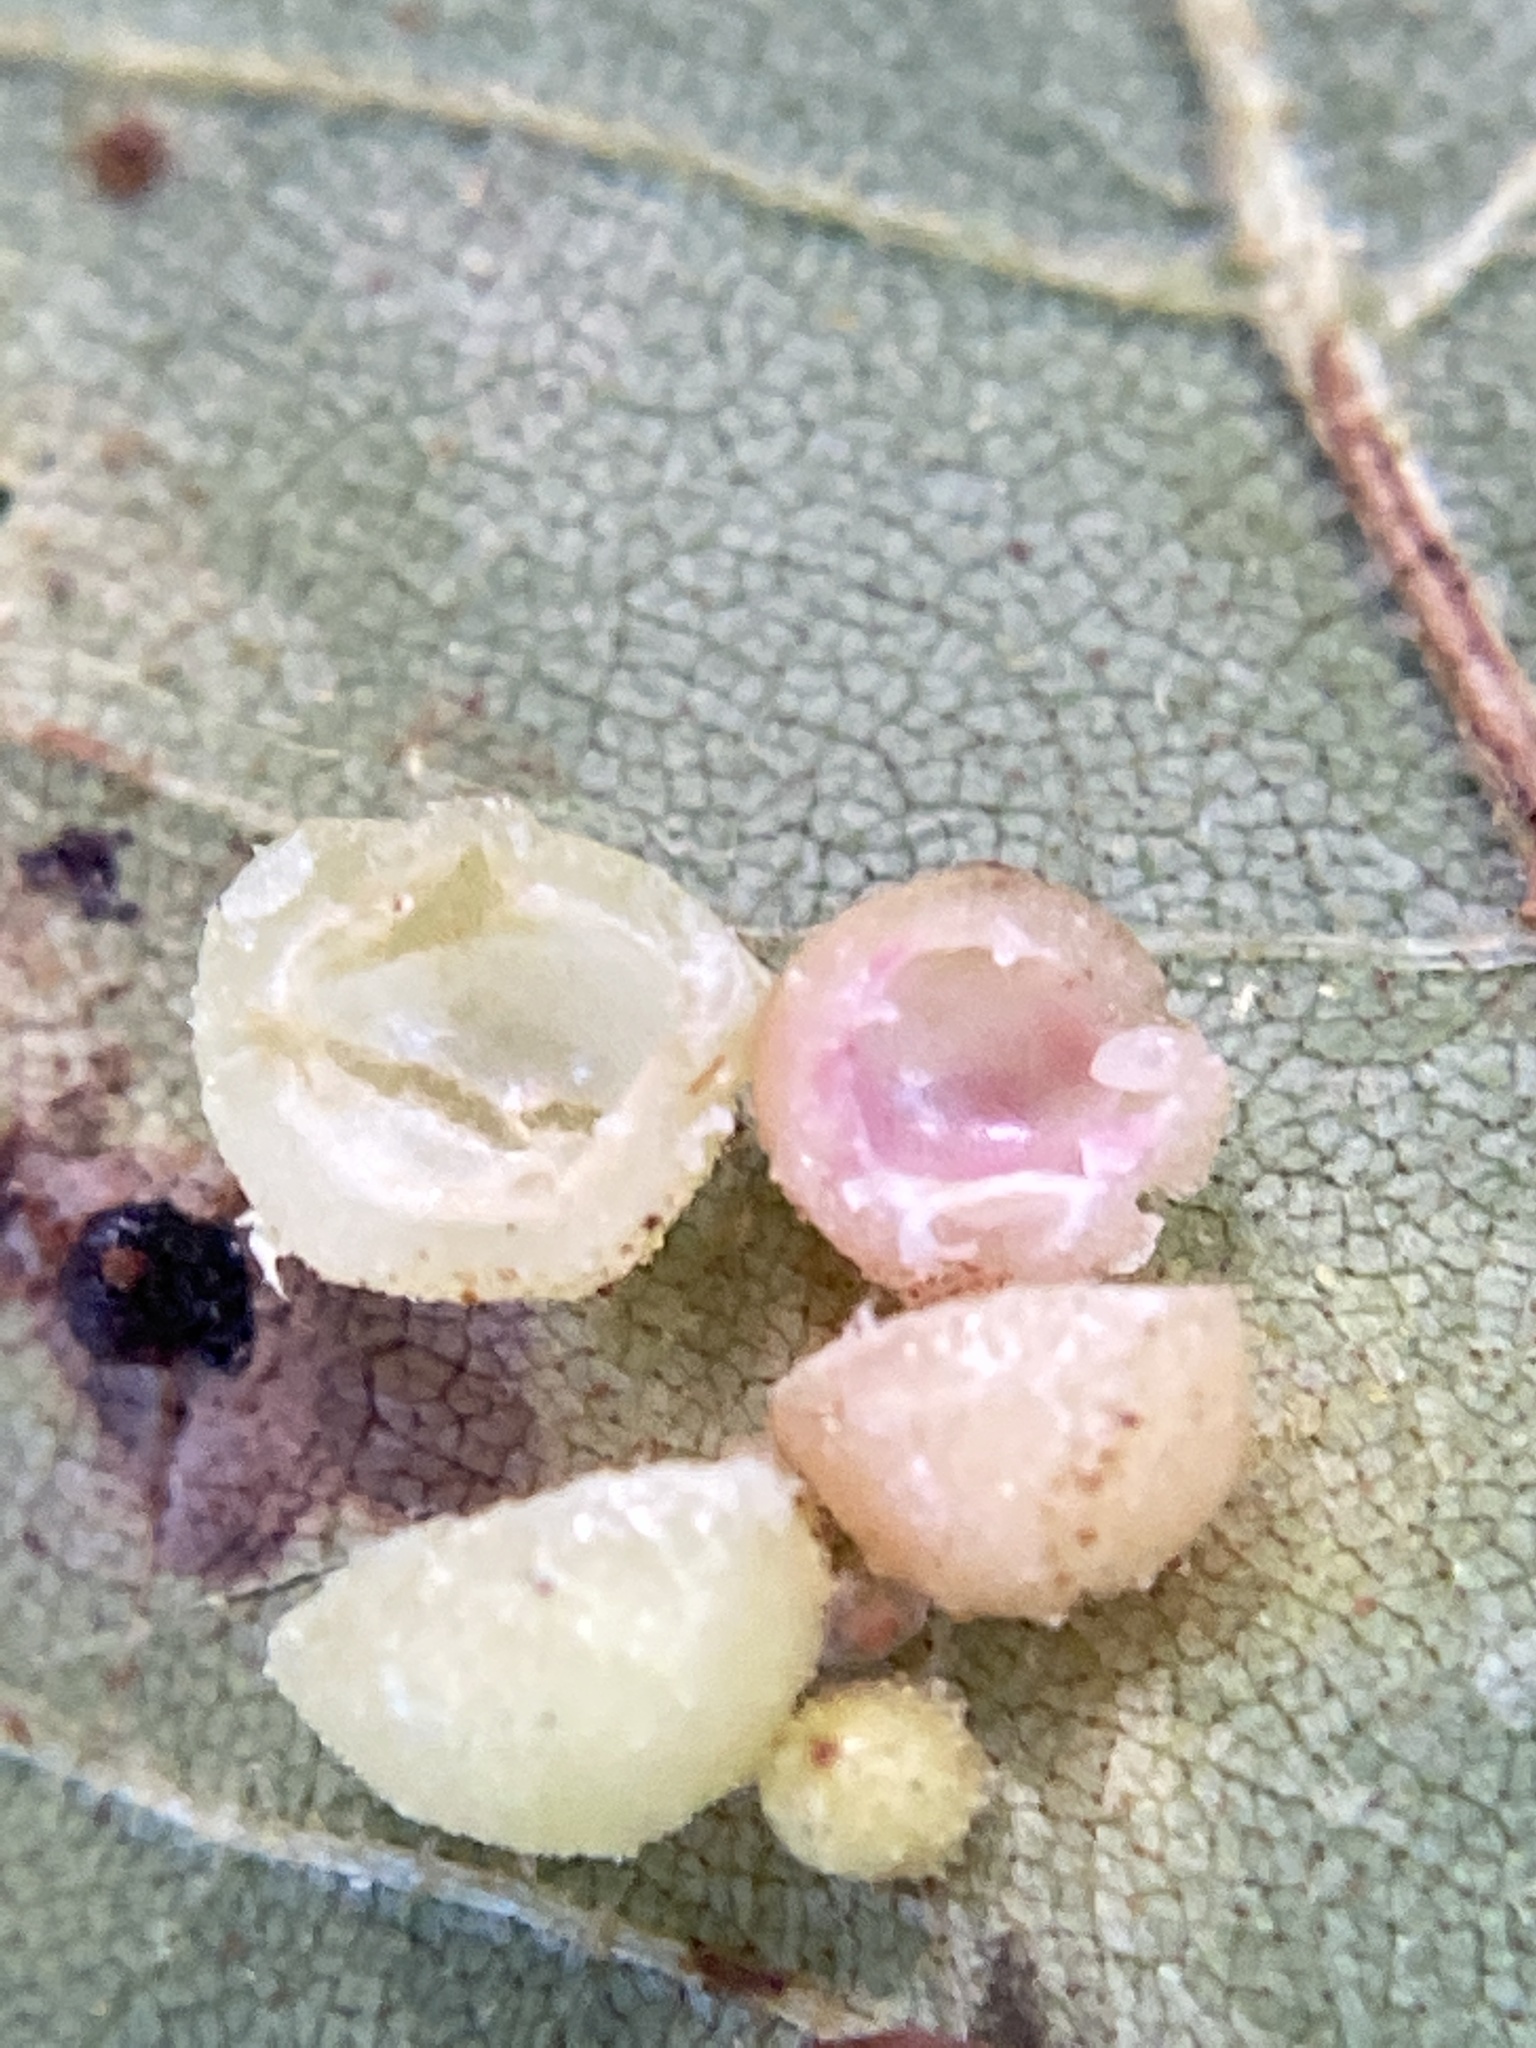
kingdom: Animalia
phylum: Arthropoda
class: Insecta
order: Diptera
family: Cecidomyiidae
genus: Caryomyia
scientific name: Caryomyia tuberculata
